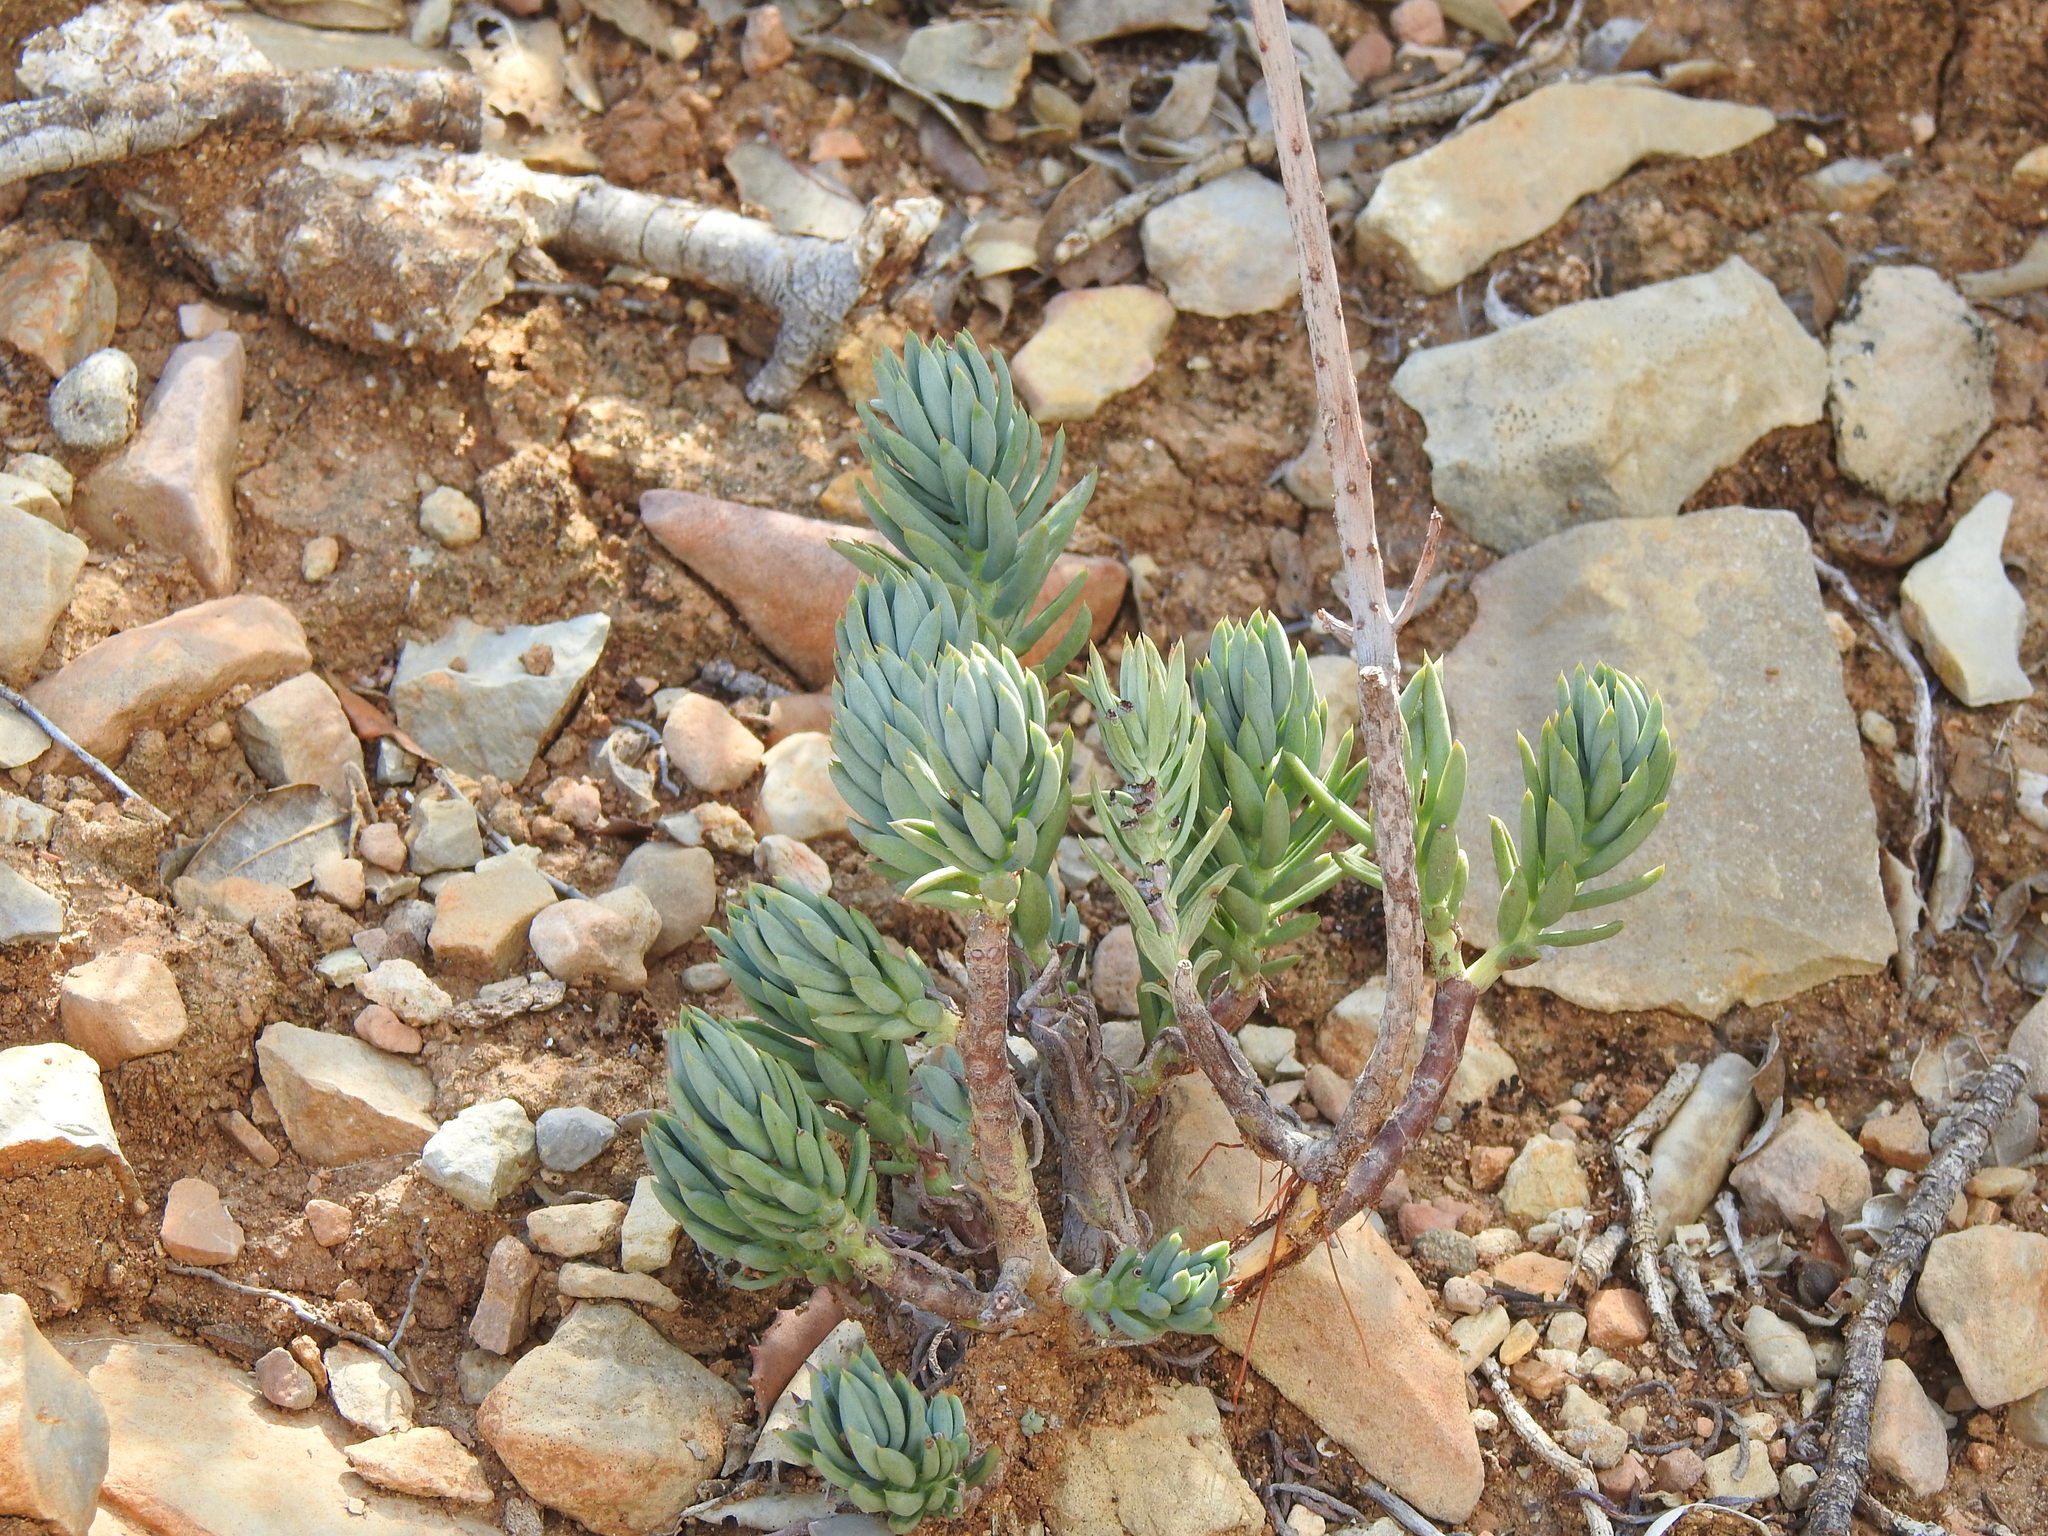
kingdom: Plantae
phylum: Tracheophyta
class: Magnoliopsida
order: Saxifragales
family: Crassulaceae
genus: Petrosedum
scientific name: Petrosedum sediforme
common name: Pale stonecrop
